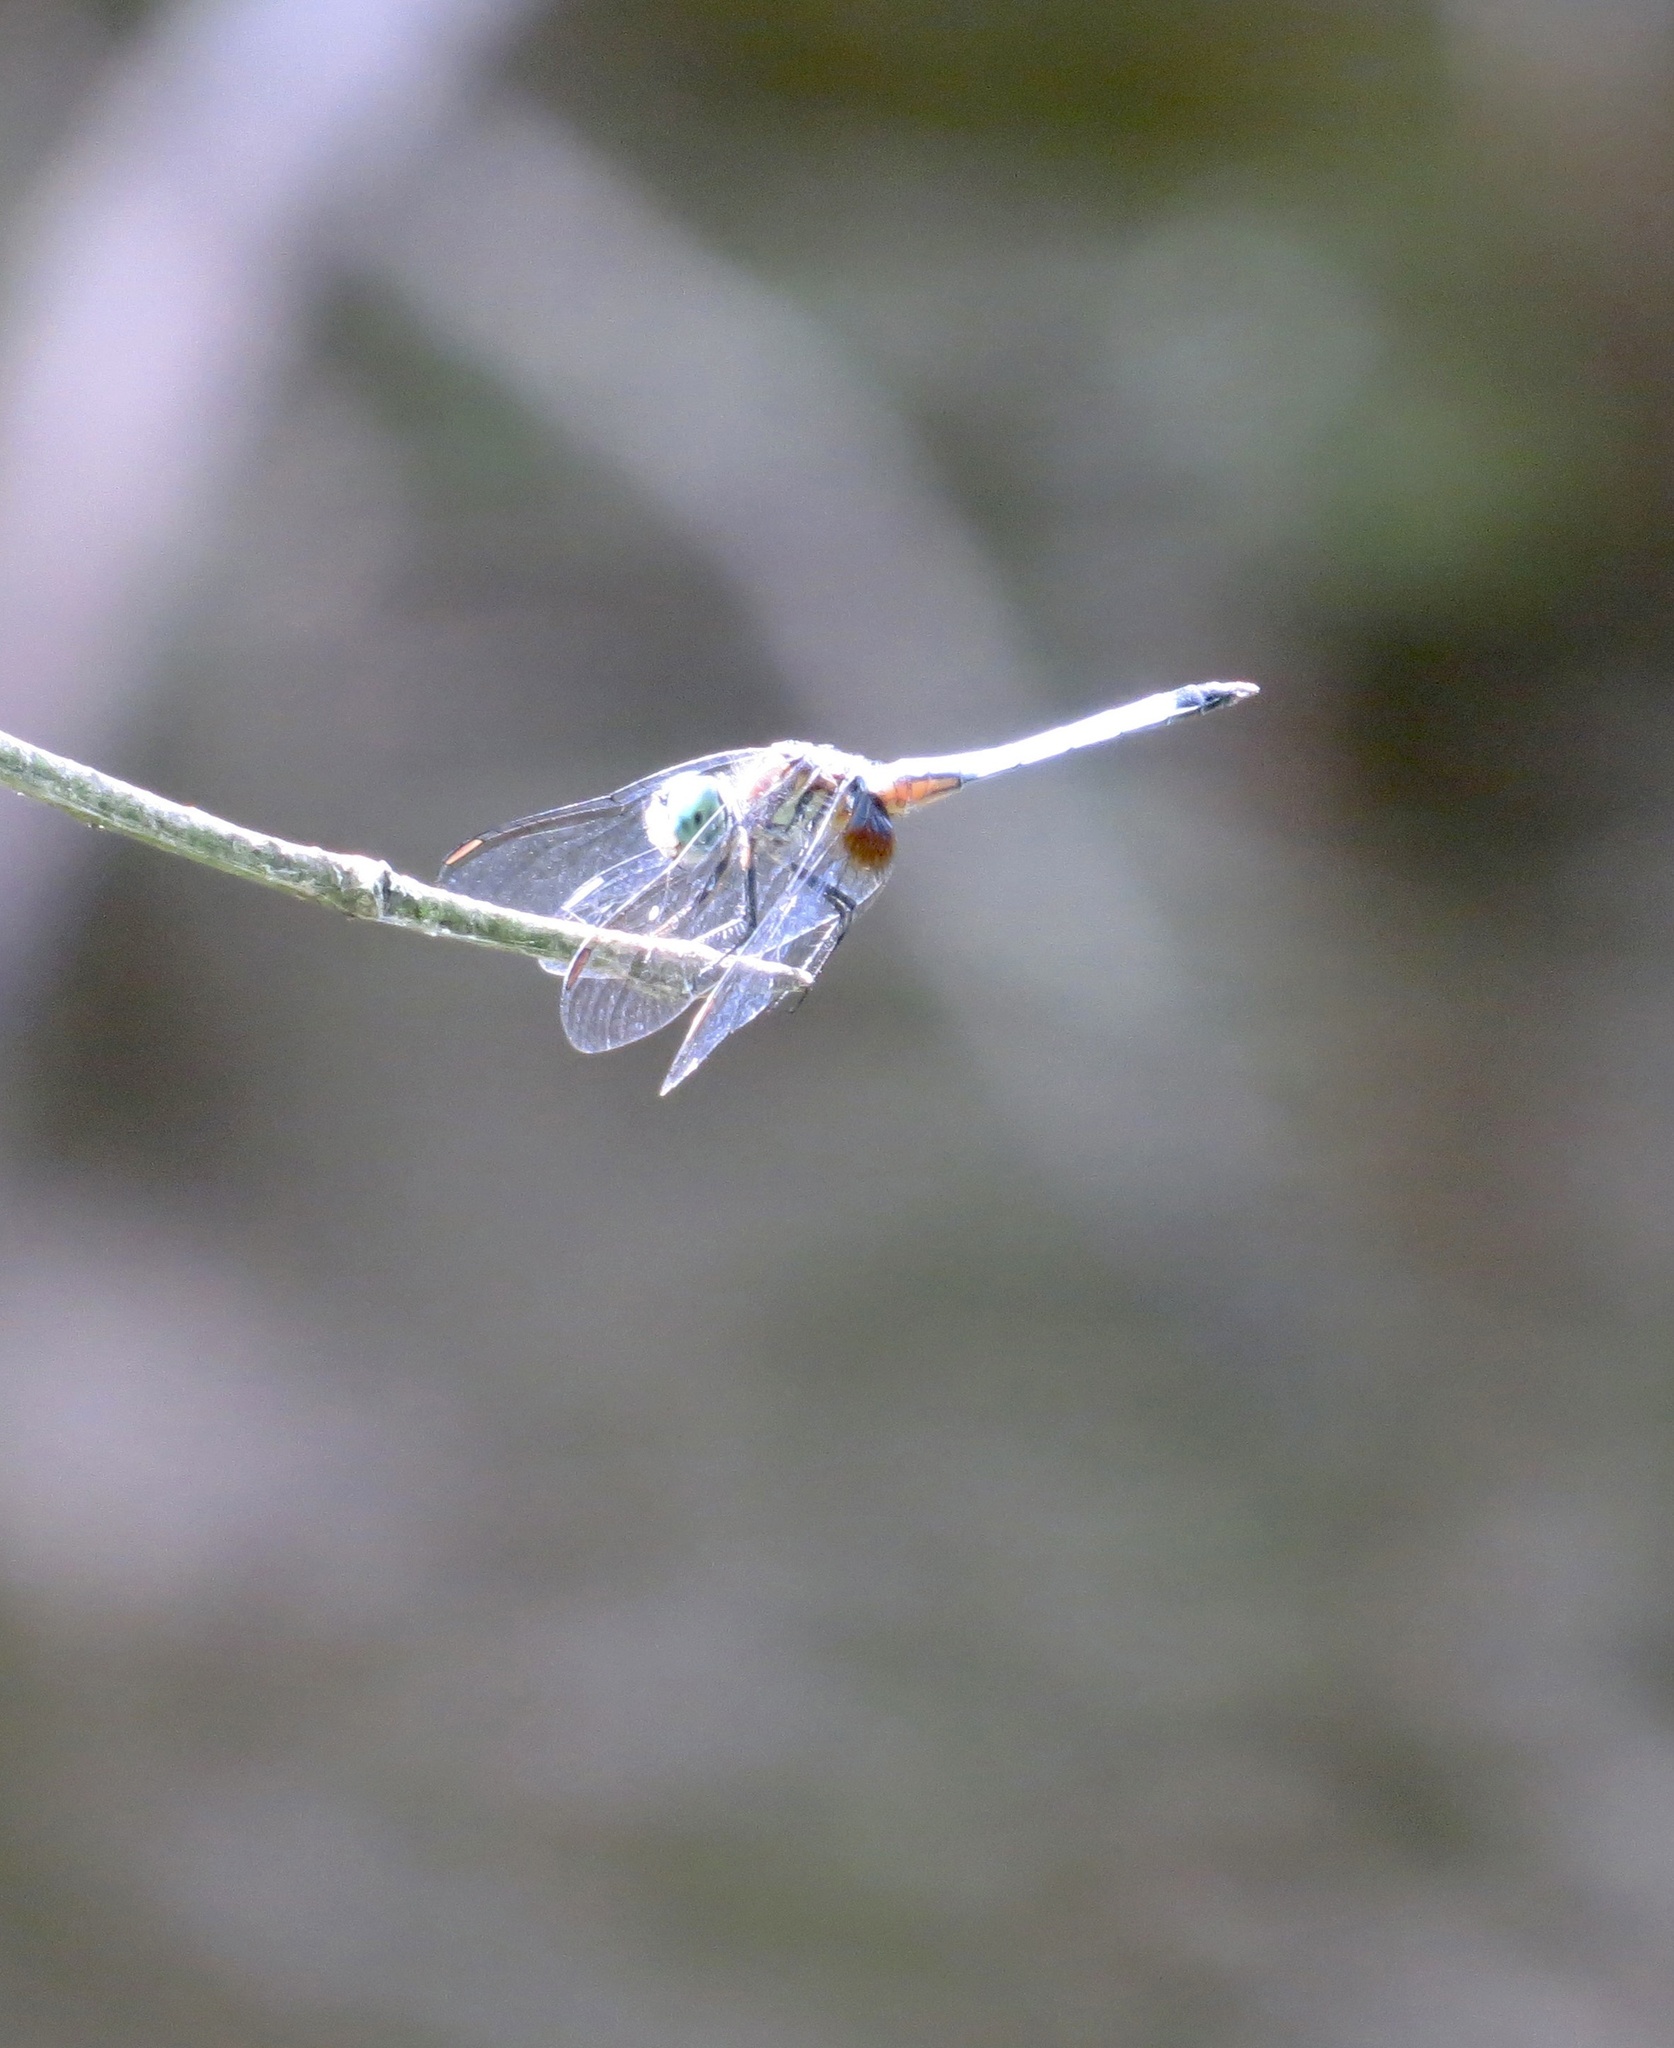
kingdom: Animalia
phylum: Arthropoda
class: Insecta
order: Odonata
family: Libellulidae
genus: Pachydiplax
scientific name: Pachydiplax longipennis
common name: Blue dasher
